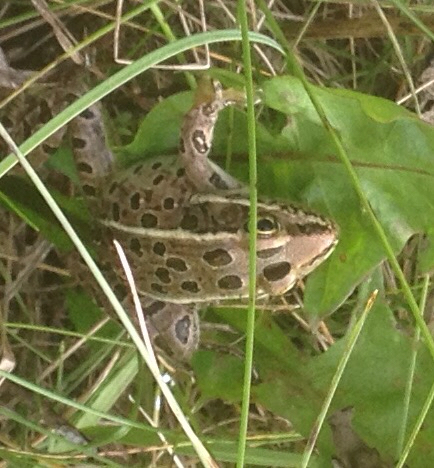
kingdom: Animalia
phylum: Chordata
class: Amphibia
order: Anura
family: Ranidae
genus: Lithobates
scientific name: Lithobates pipiens
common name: Northern leopard frog
